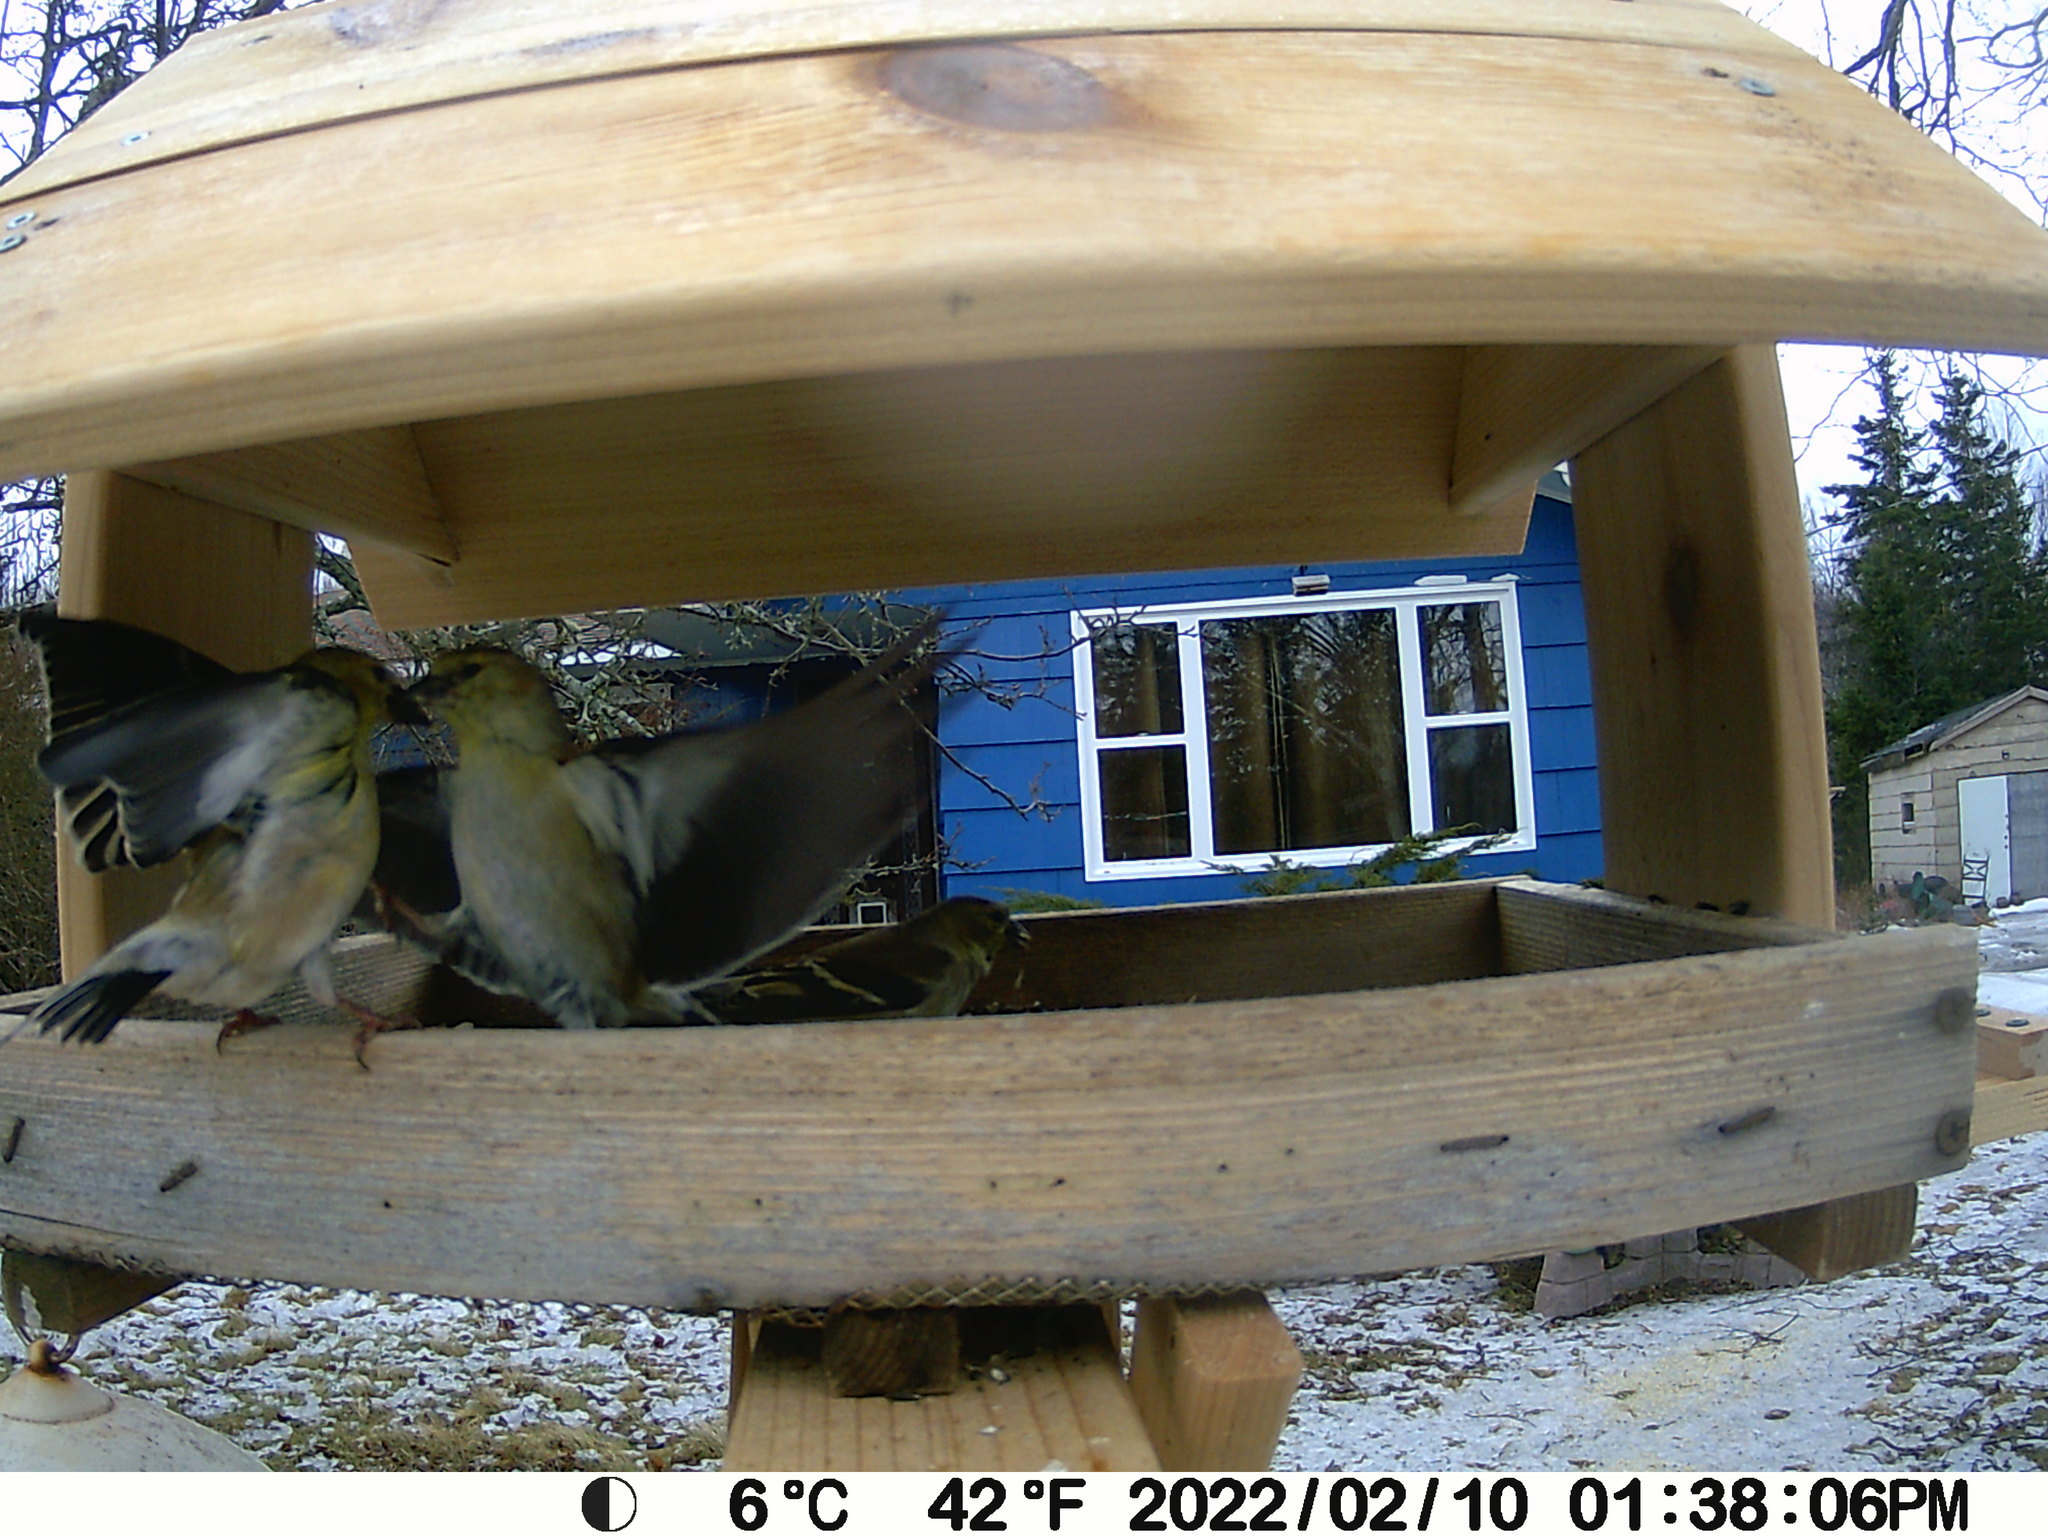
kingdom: Animalia
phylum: Chordata
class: Aves
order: Passeriformes
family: Fringillidae
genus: Spinus
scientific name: Spinus tristis
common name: American goldfinch
